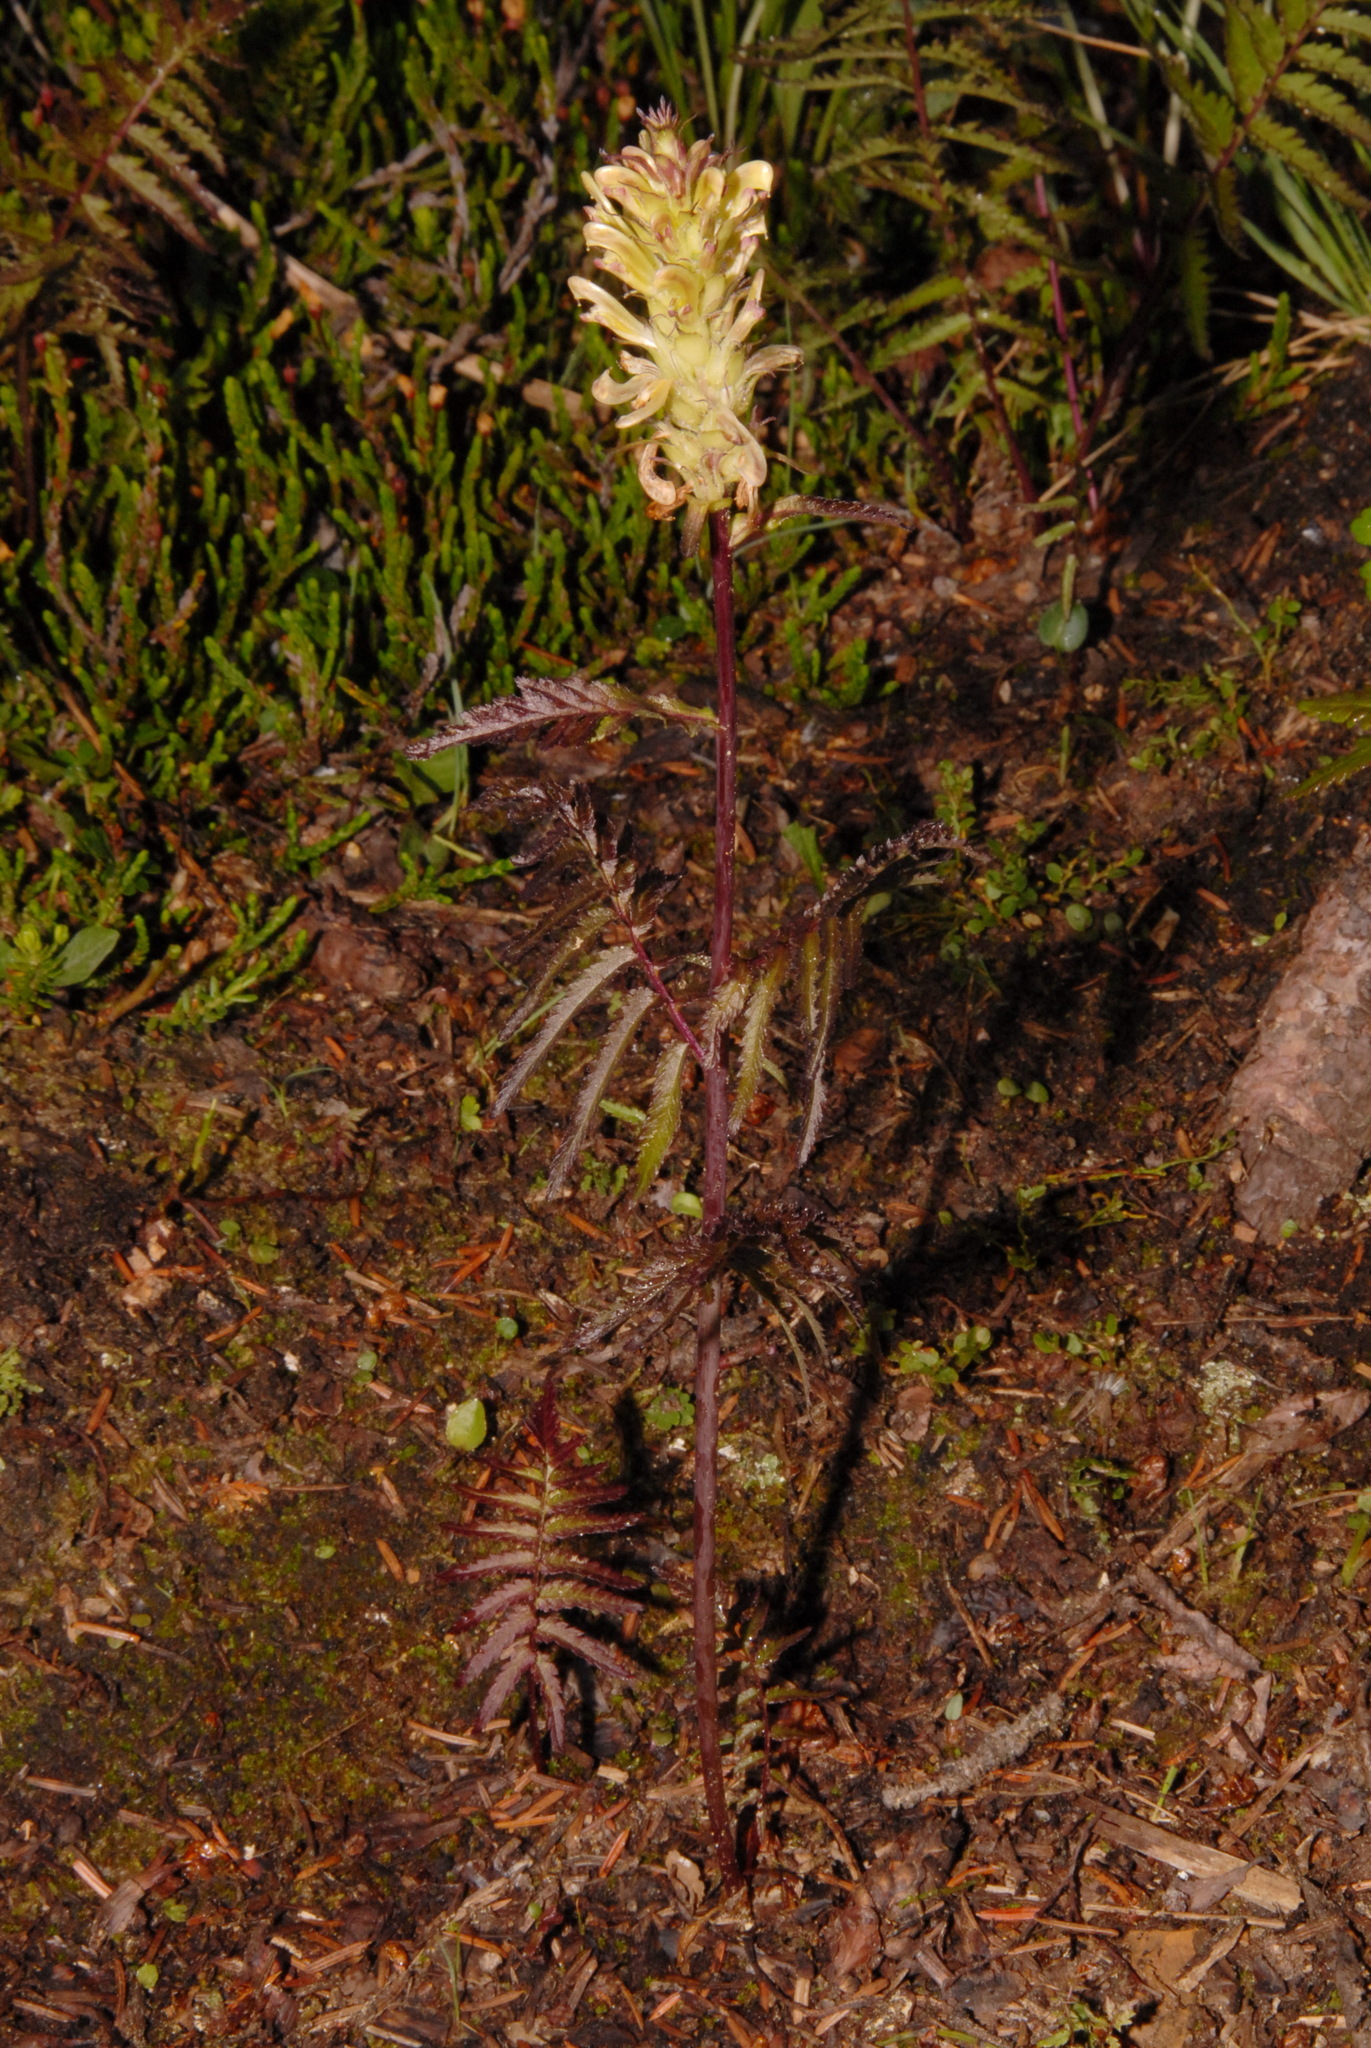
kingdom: Plantae
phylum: Tracheophyta
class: Magnoliopsida
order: Lamiales
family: Orobanchaceae
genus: Pedicularis
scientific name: Pedicularis bracteosa
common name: Bracted lousewort
